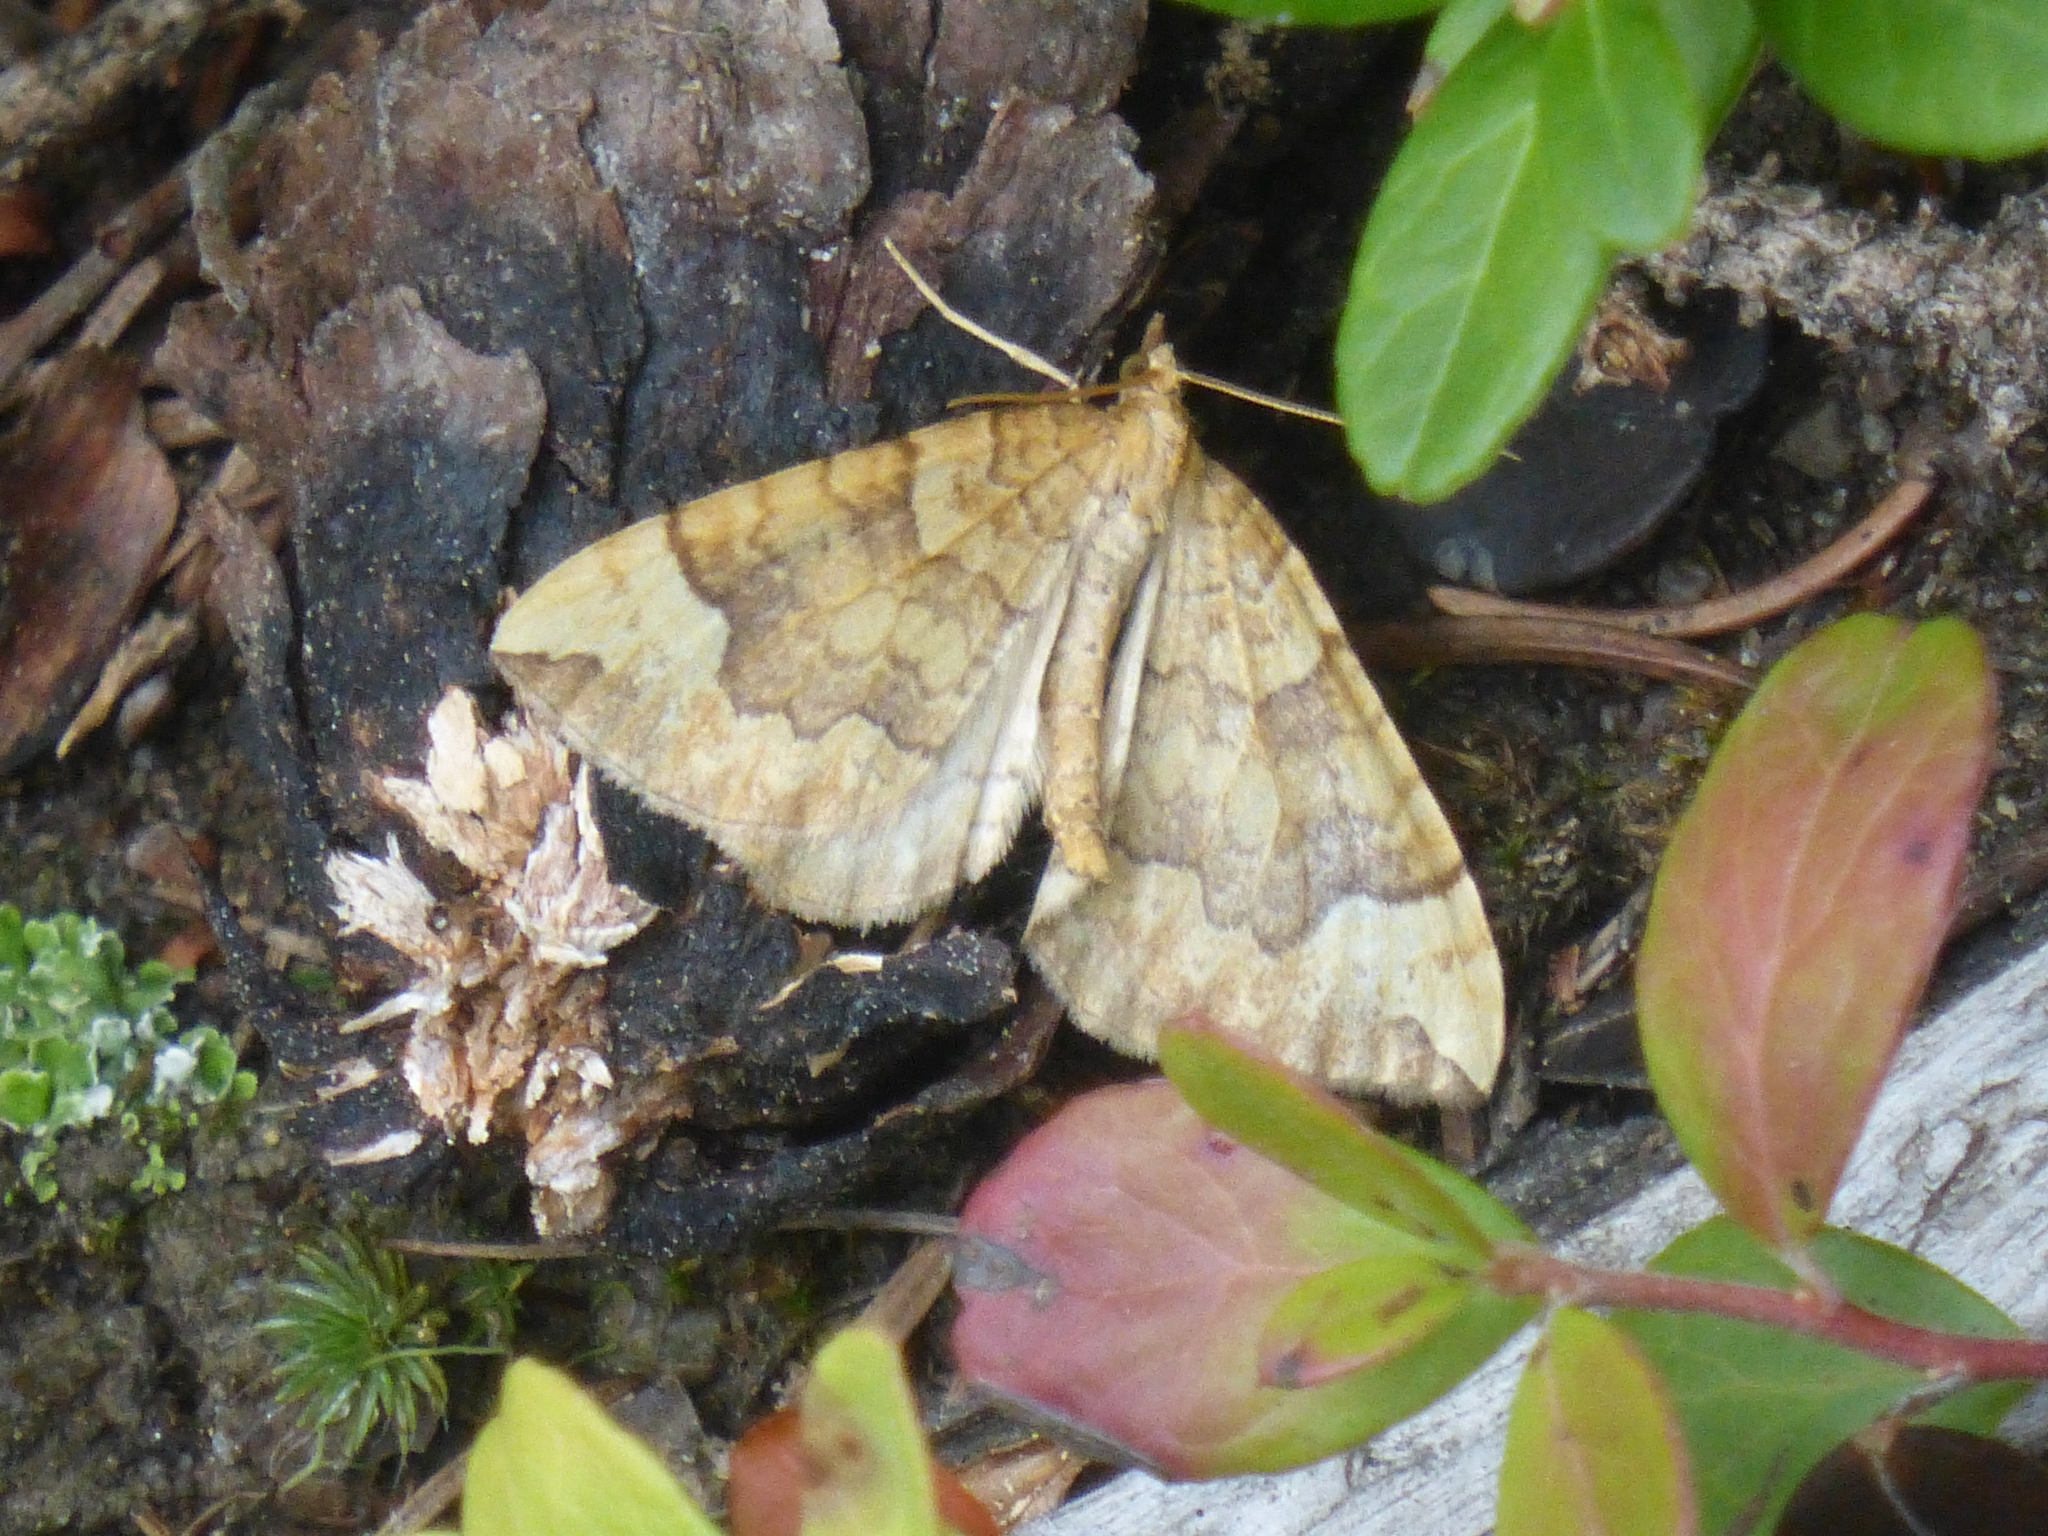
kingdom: Animalia
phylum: Arthropoda
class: Insecta
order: Lepidoptera
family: Geometridae
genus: Eulithis
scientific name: Eulithis populata
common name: Northern spinach
